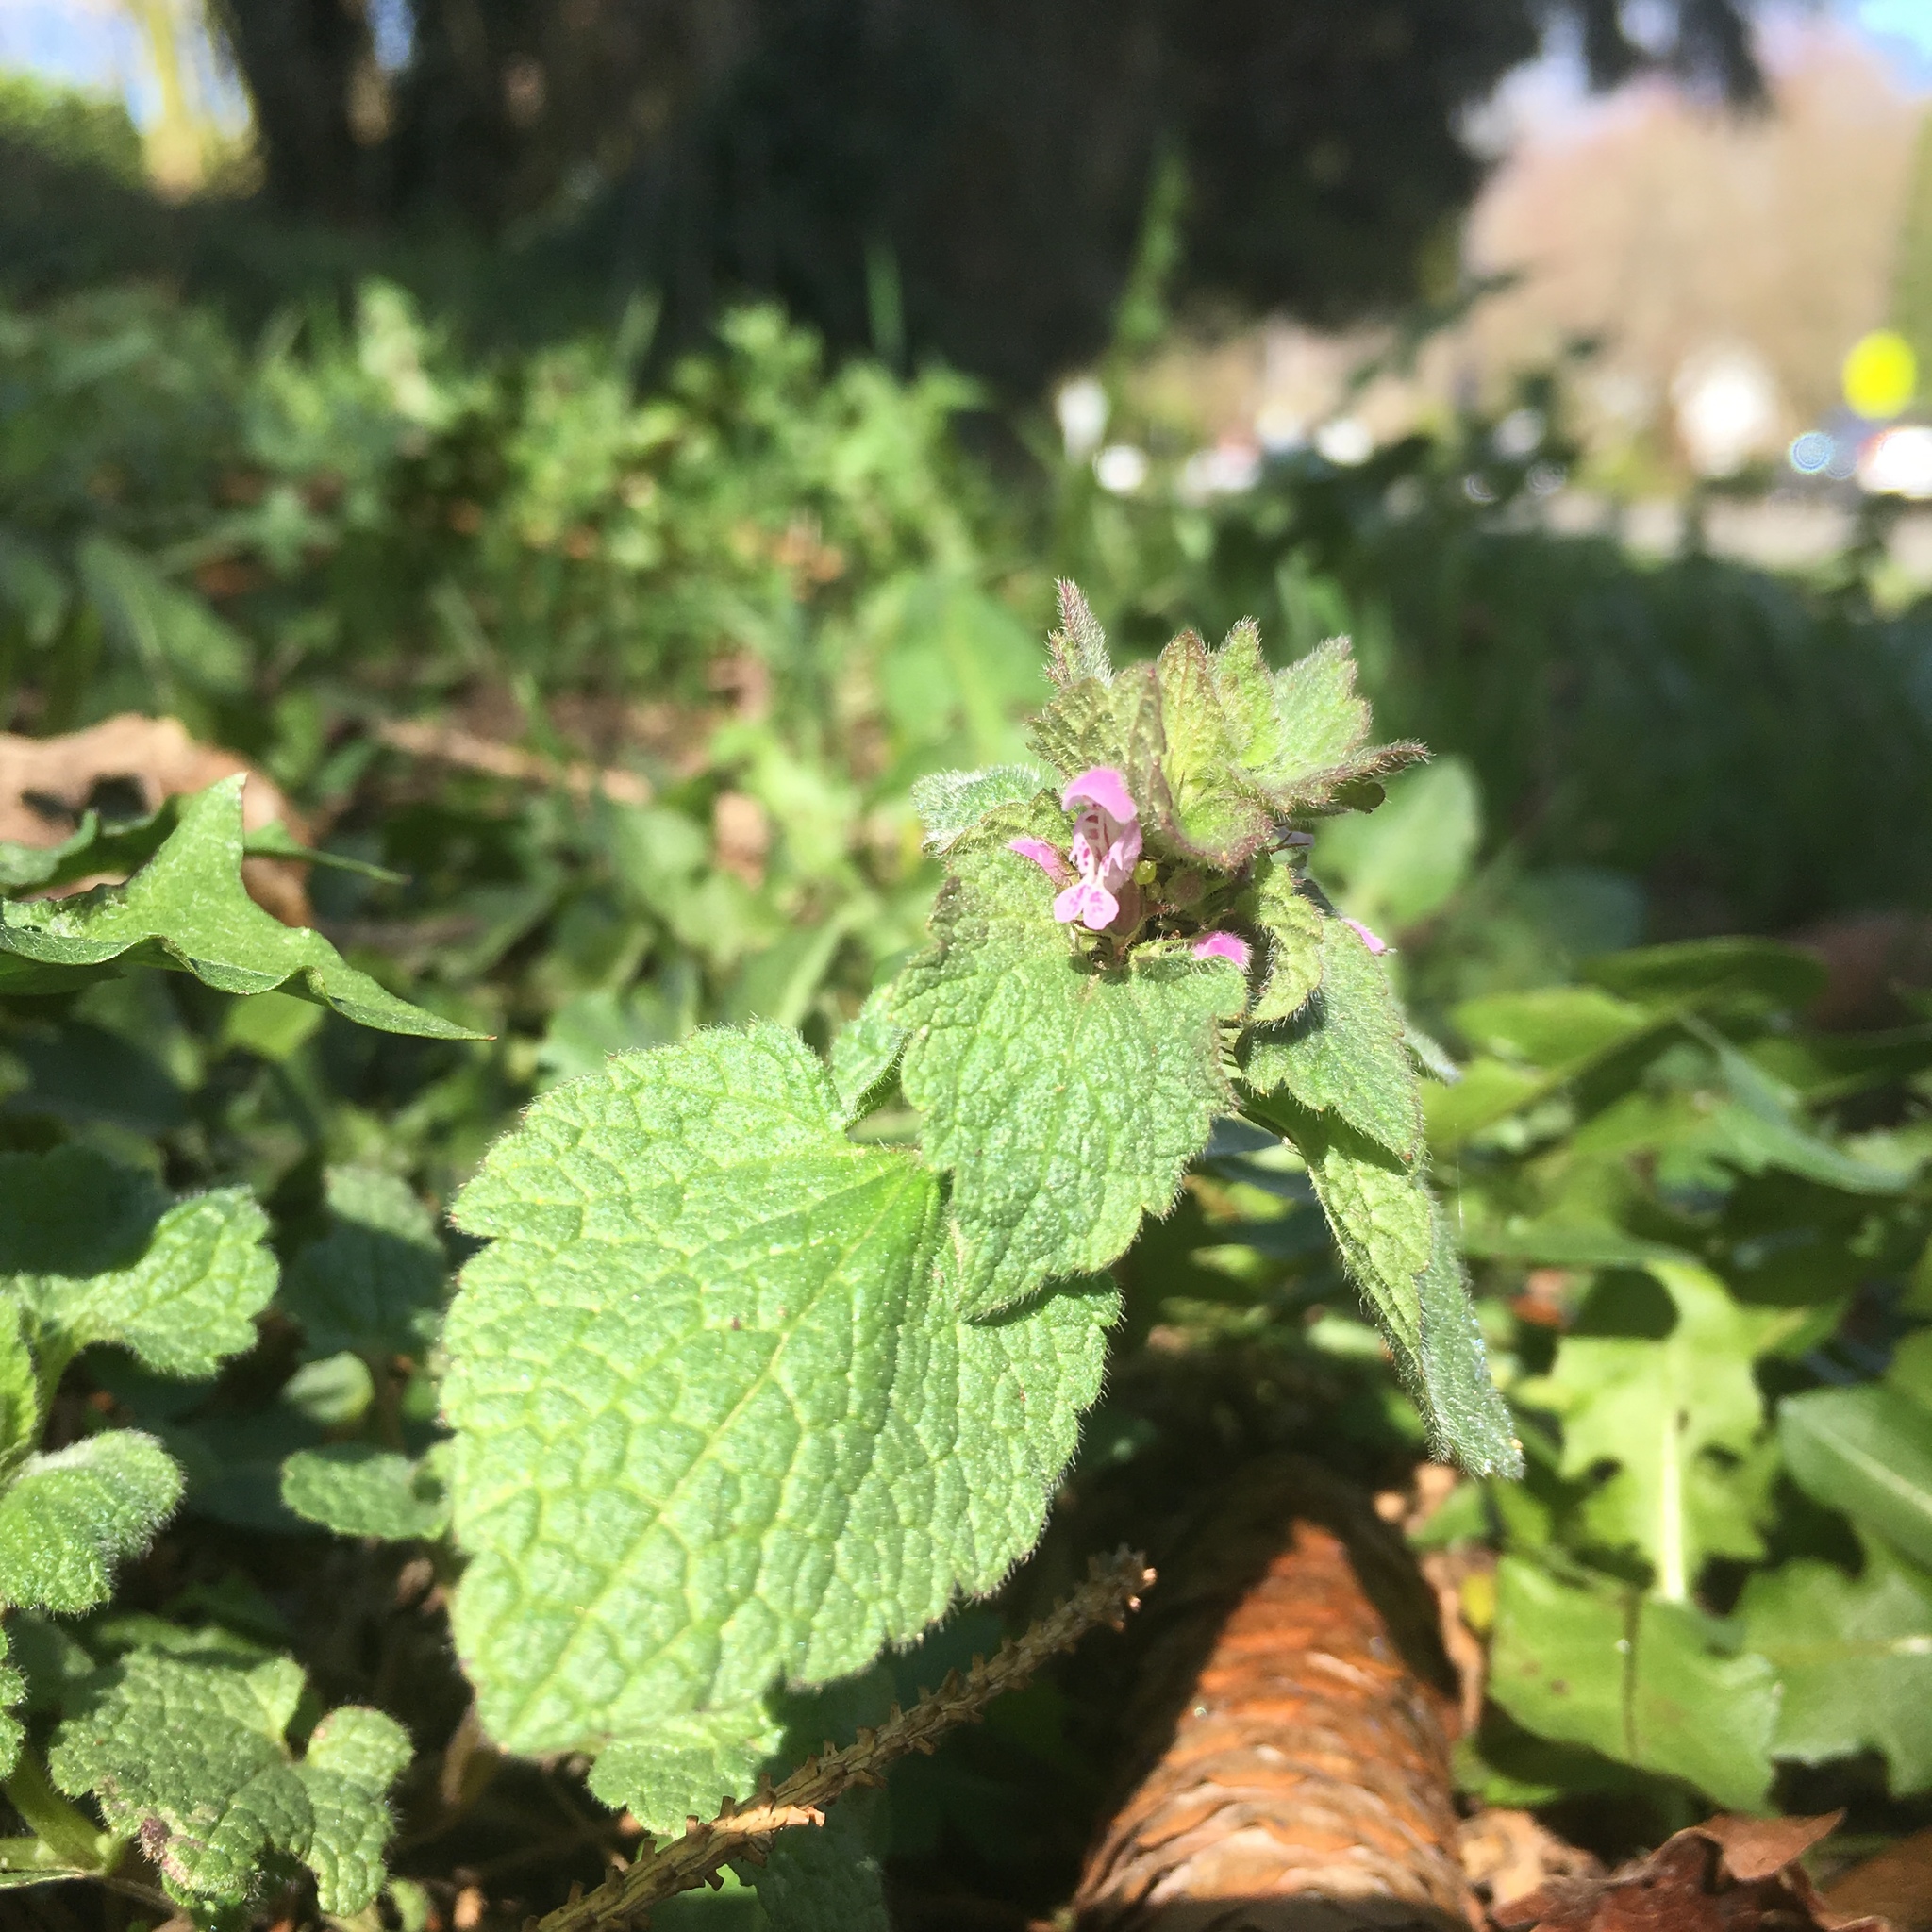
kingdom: Plantae
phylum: Tracheophyta
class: Magnoliopsida
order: Lamiales
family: Lamiaceae
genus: Lamium
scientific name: Lamium purpureum
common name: Red dead-nettle
